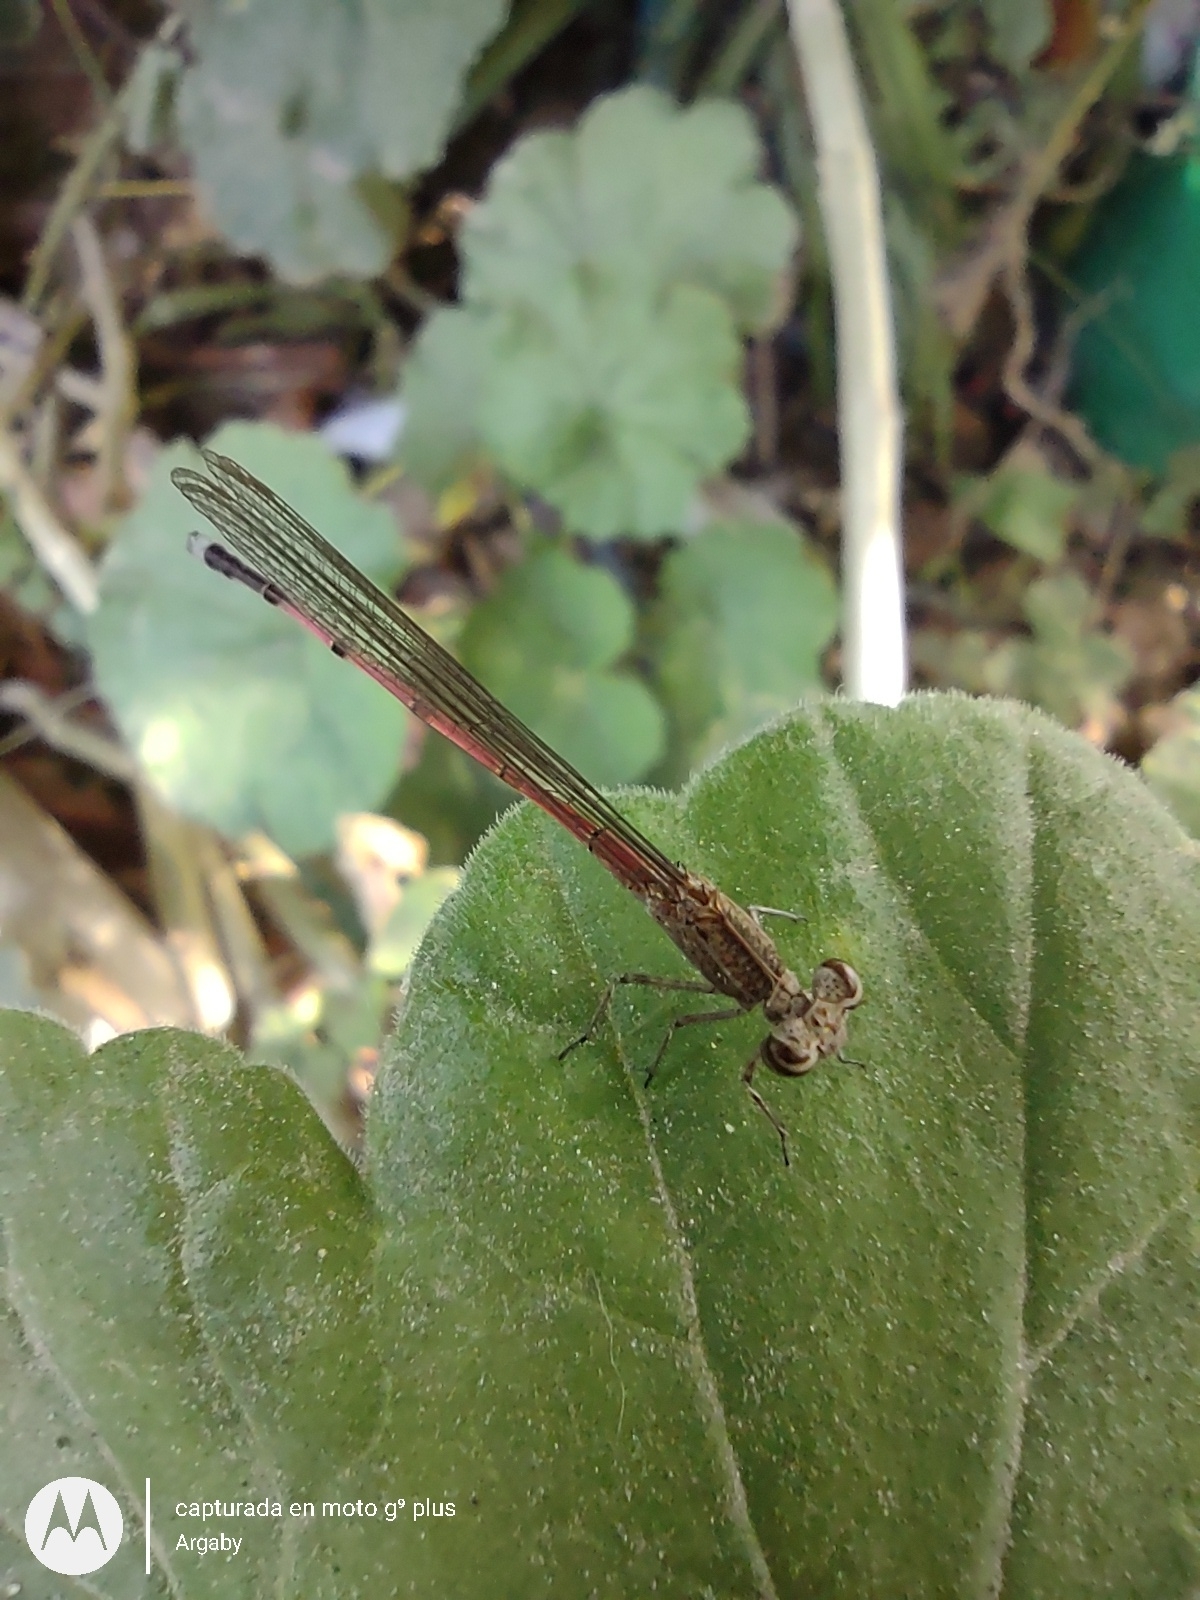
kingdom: Animalia
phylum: Arthropoda
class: Insecta
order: Odonata
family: Coenagrionidae
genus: Oxyagrion
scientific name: Oxyagrion terminale
